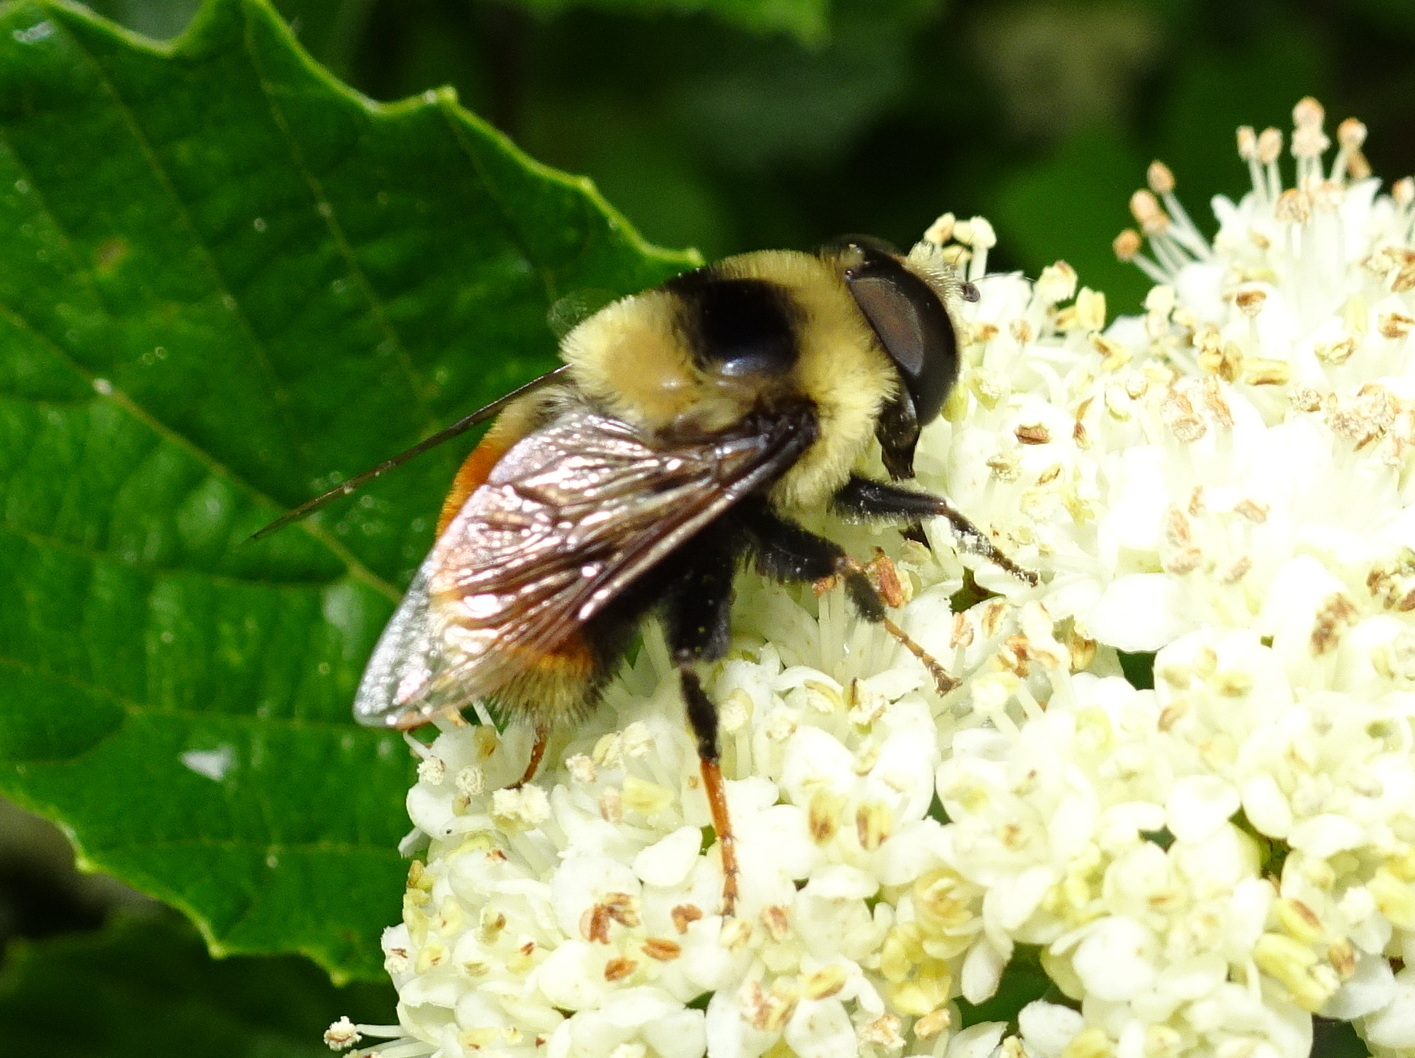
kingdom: Animalia
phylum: Arthropoda
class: Insecta
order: Diptera
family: Syrphidae
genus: Eristalis
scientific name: Eristalis flavipes
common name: Orange-legged drone fly
